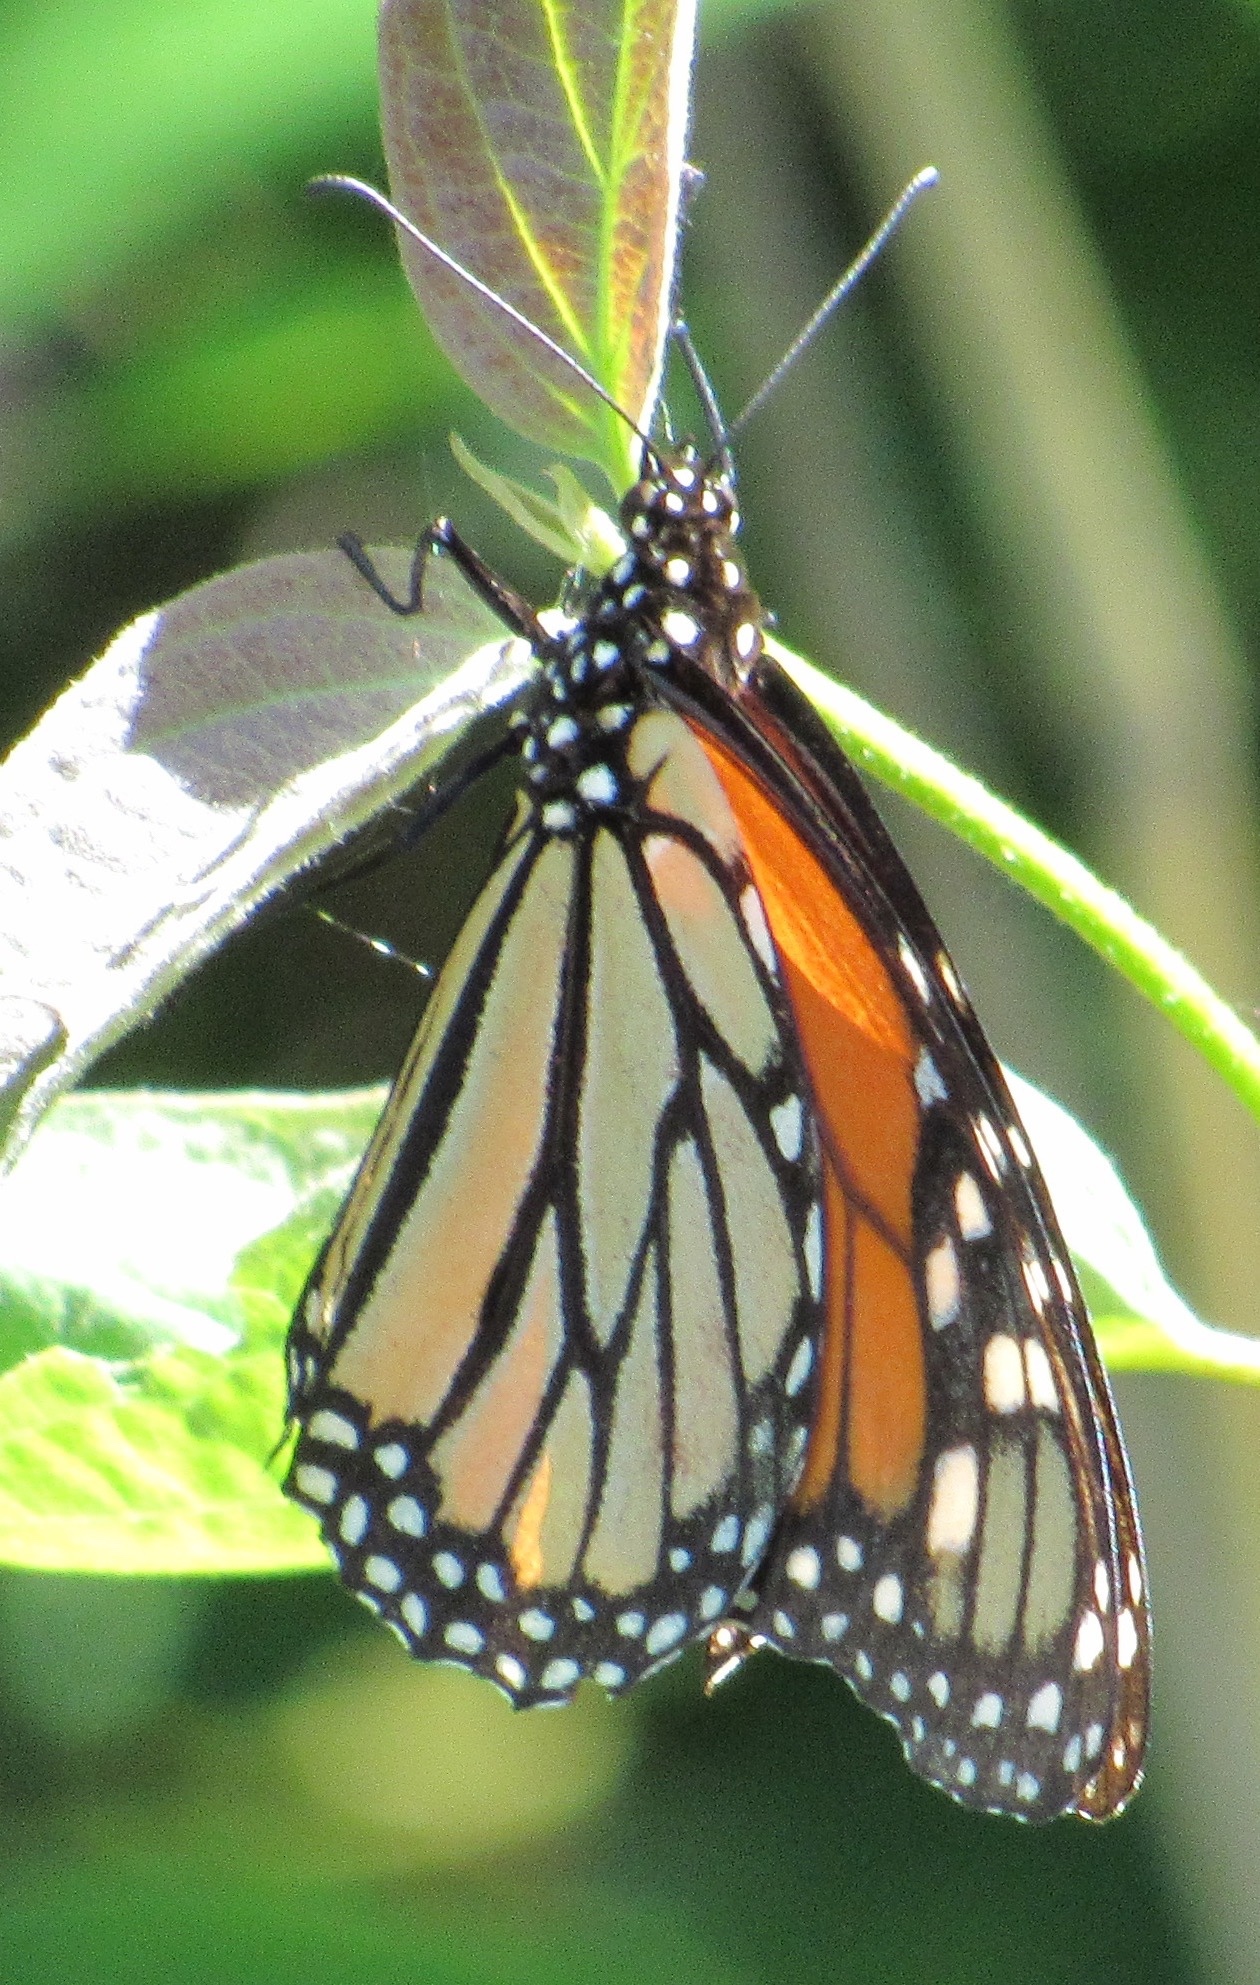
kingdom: Animalia
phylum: Arthropoda
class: Insecta
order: Lepidoptera
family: Nymphalidae
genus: Danaus
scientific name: Danaus plexippus
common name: Monarch
